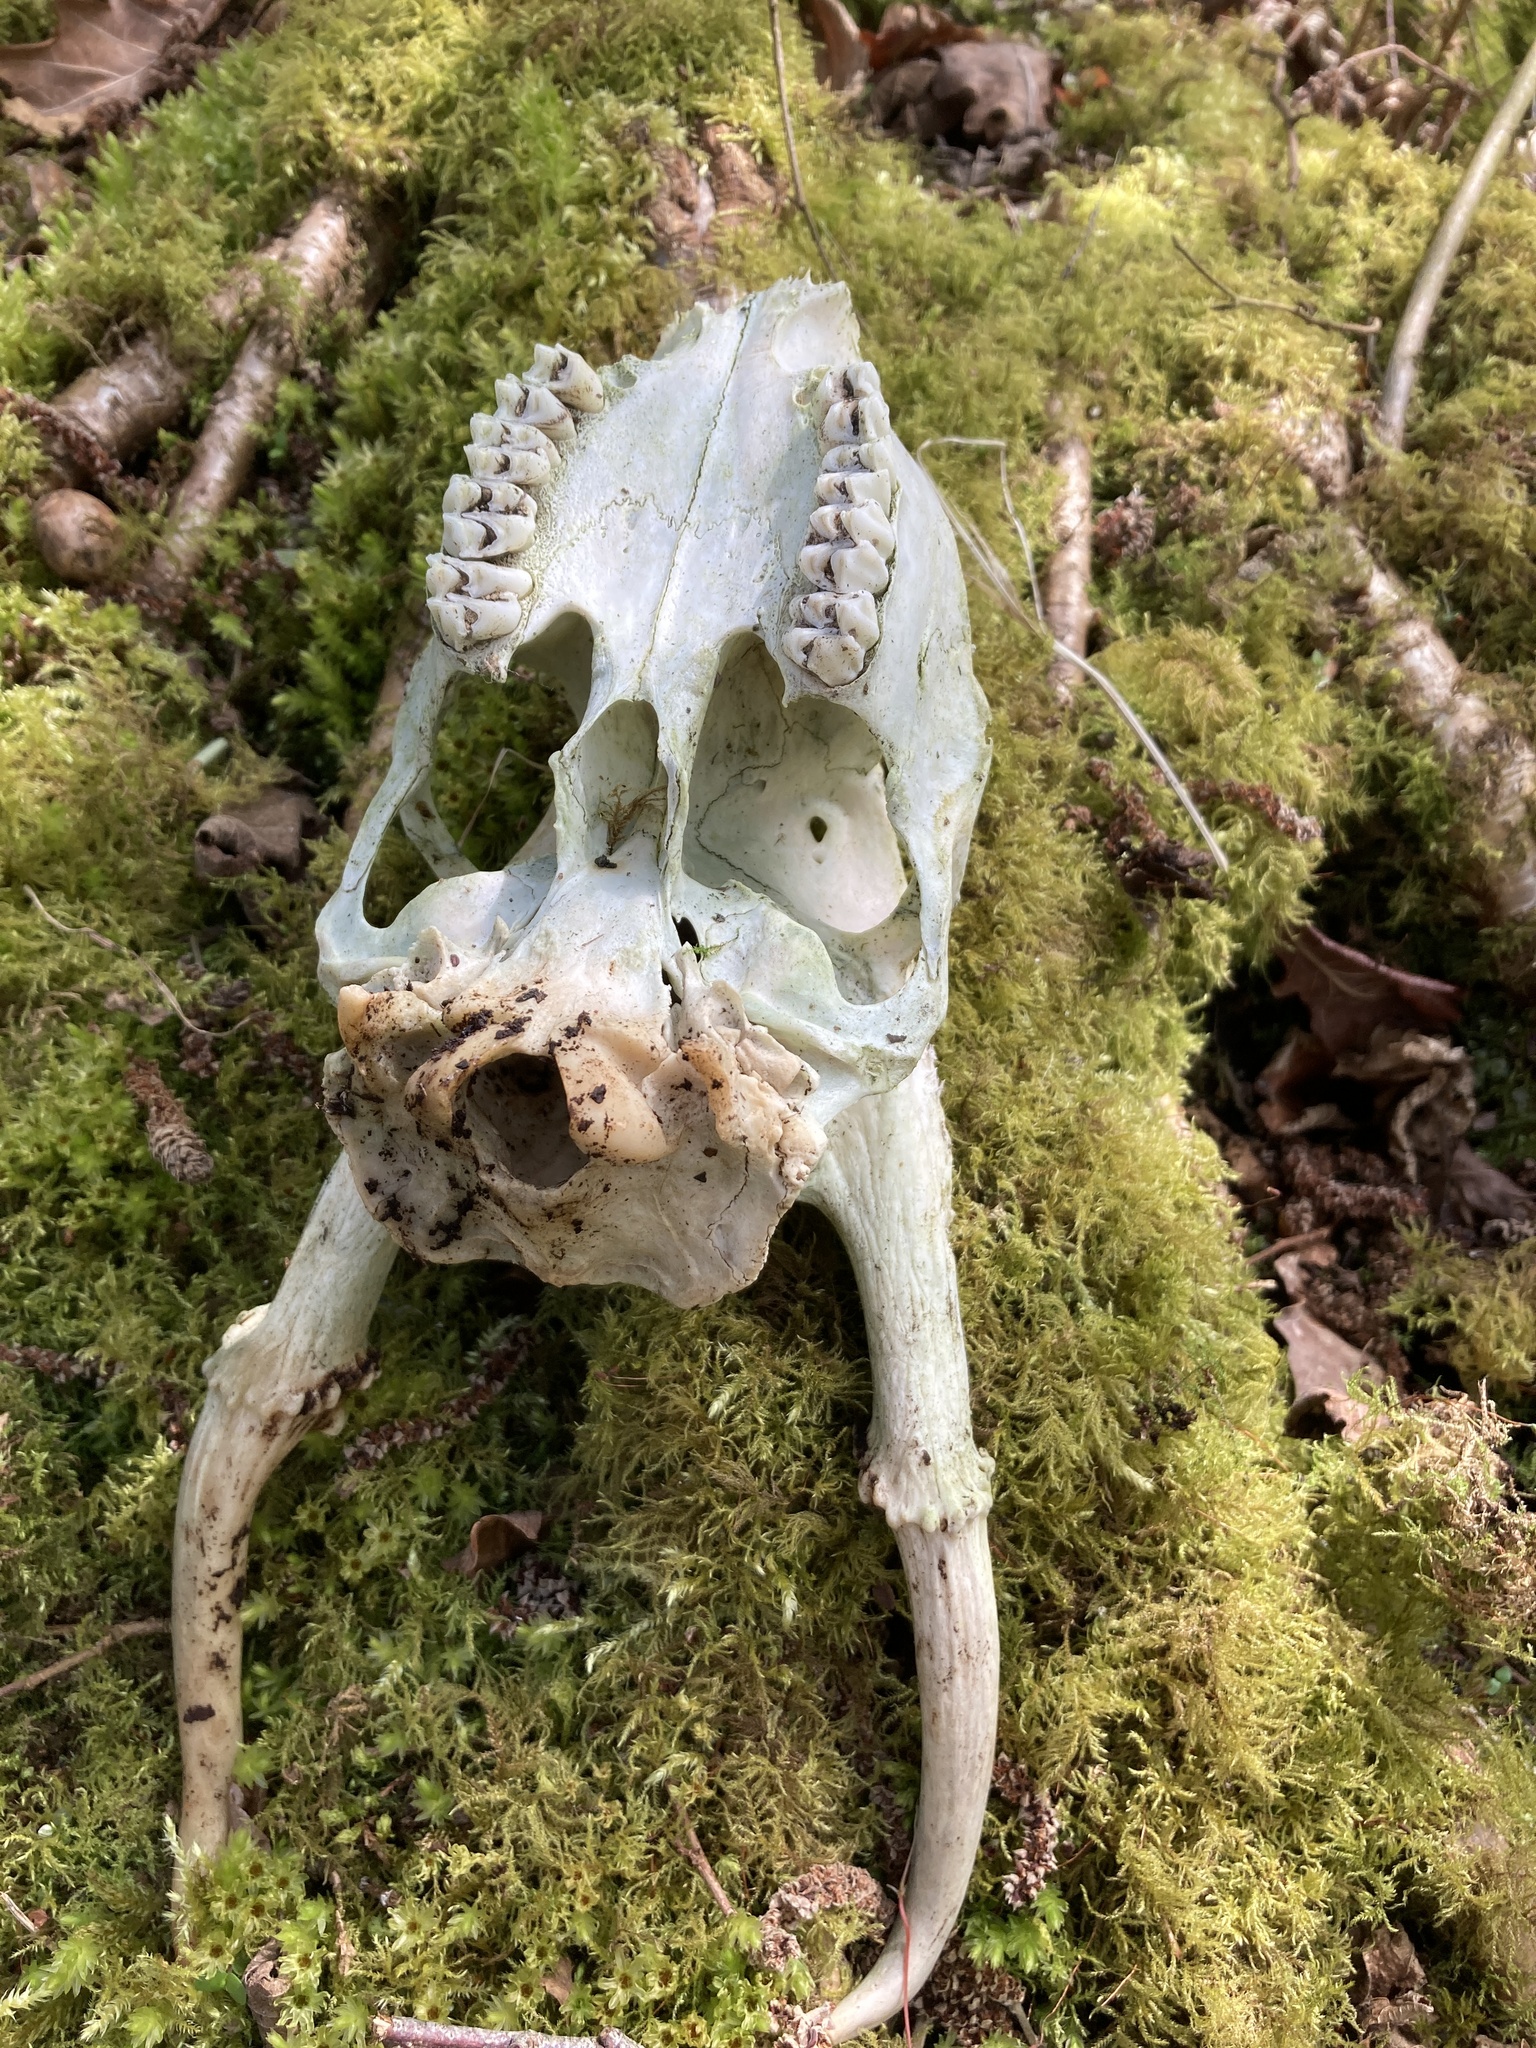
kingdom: Animalia
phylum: Chordata
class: Mammalia
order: Artiodactyla
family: Cervidae
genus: Muntiacus
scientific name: Muntiacus reevesi
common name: Reeves' muntjac
